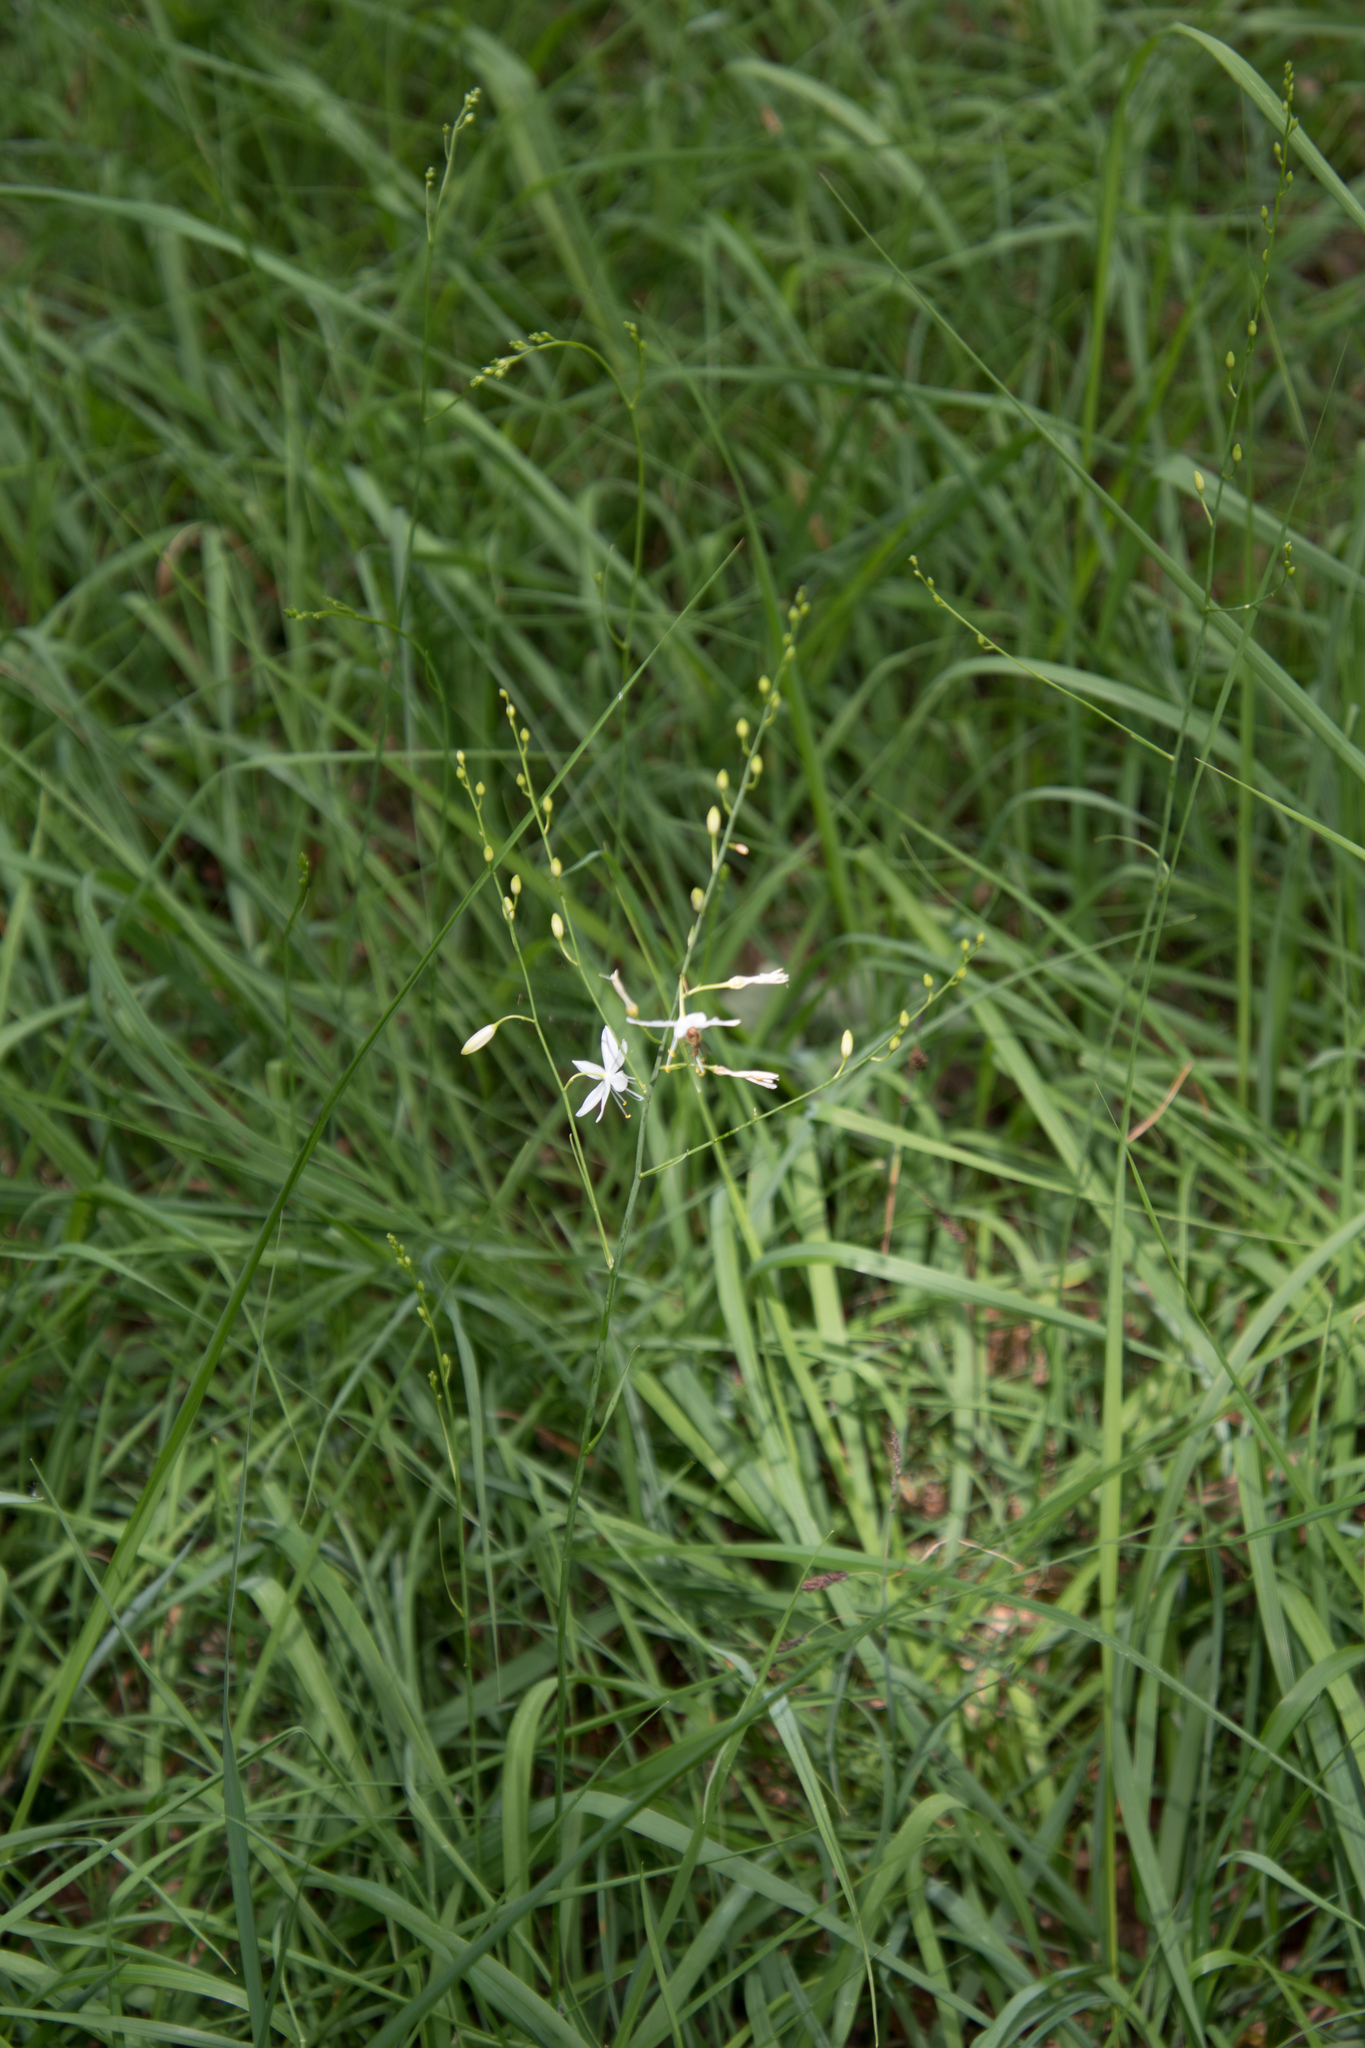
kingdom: Plantae
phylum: Tracheophyta
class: Liliopsida
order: Asparagales
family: Asparagaceae
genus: Anthericum
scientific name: Anthericum ramosum
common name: Branched st. bernard's-lily
